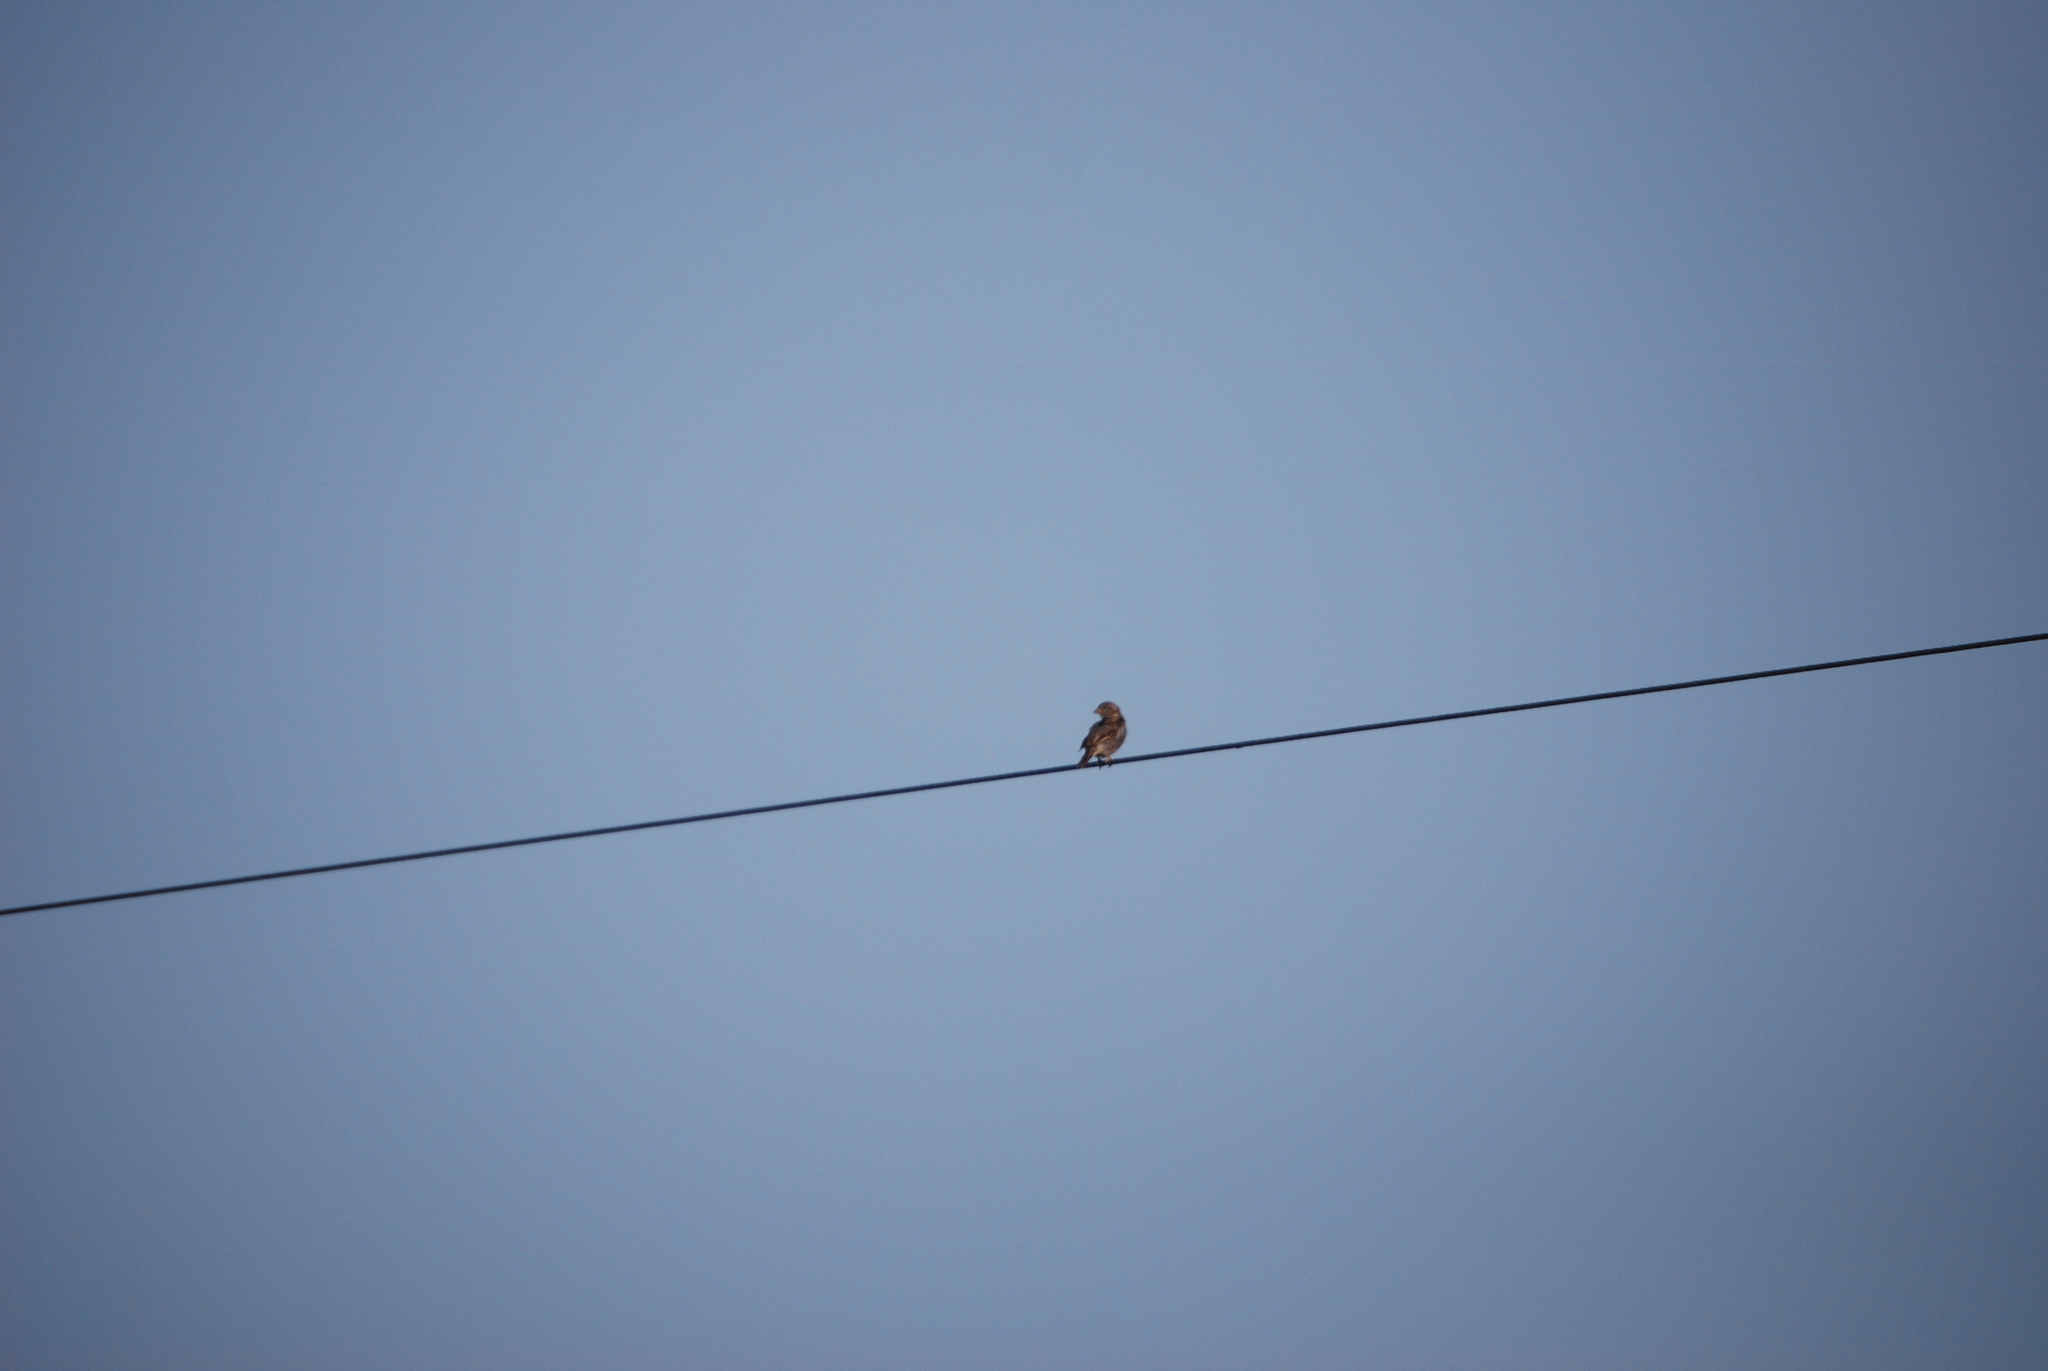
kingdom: Animalia
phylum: Chordata
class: Aves
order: Passeriformes
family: Passeridae
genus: Passer
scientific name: Passer domesticus
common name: House sparrow
